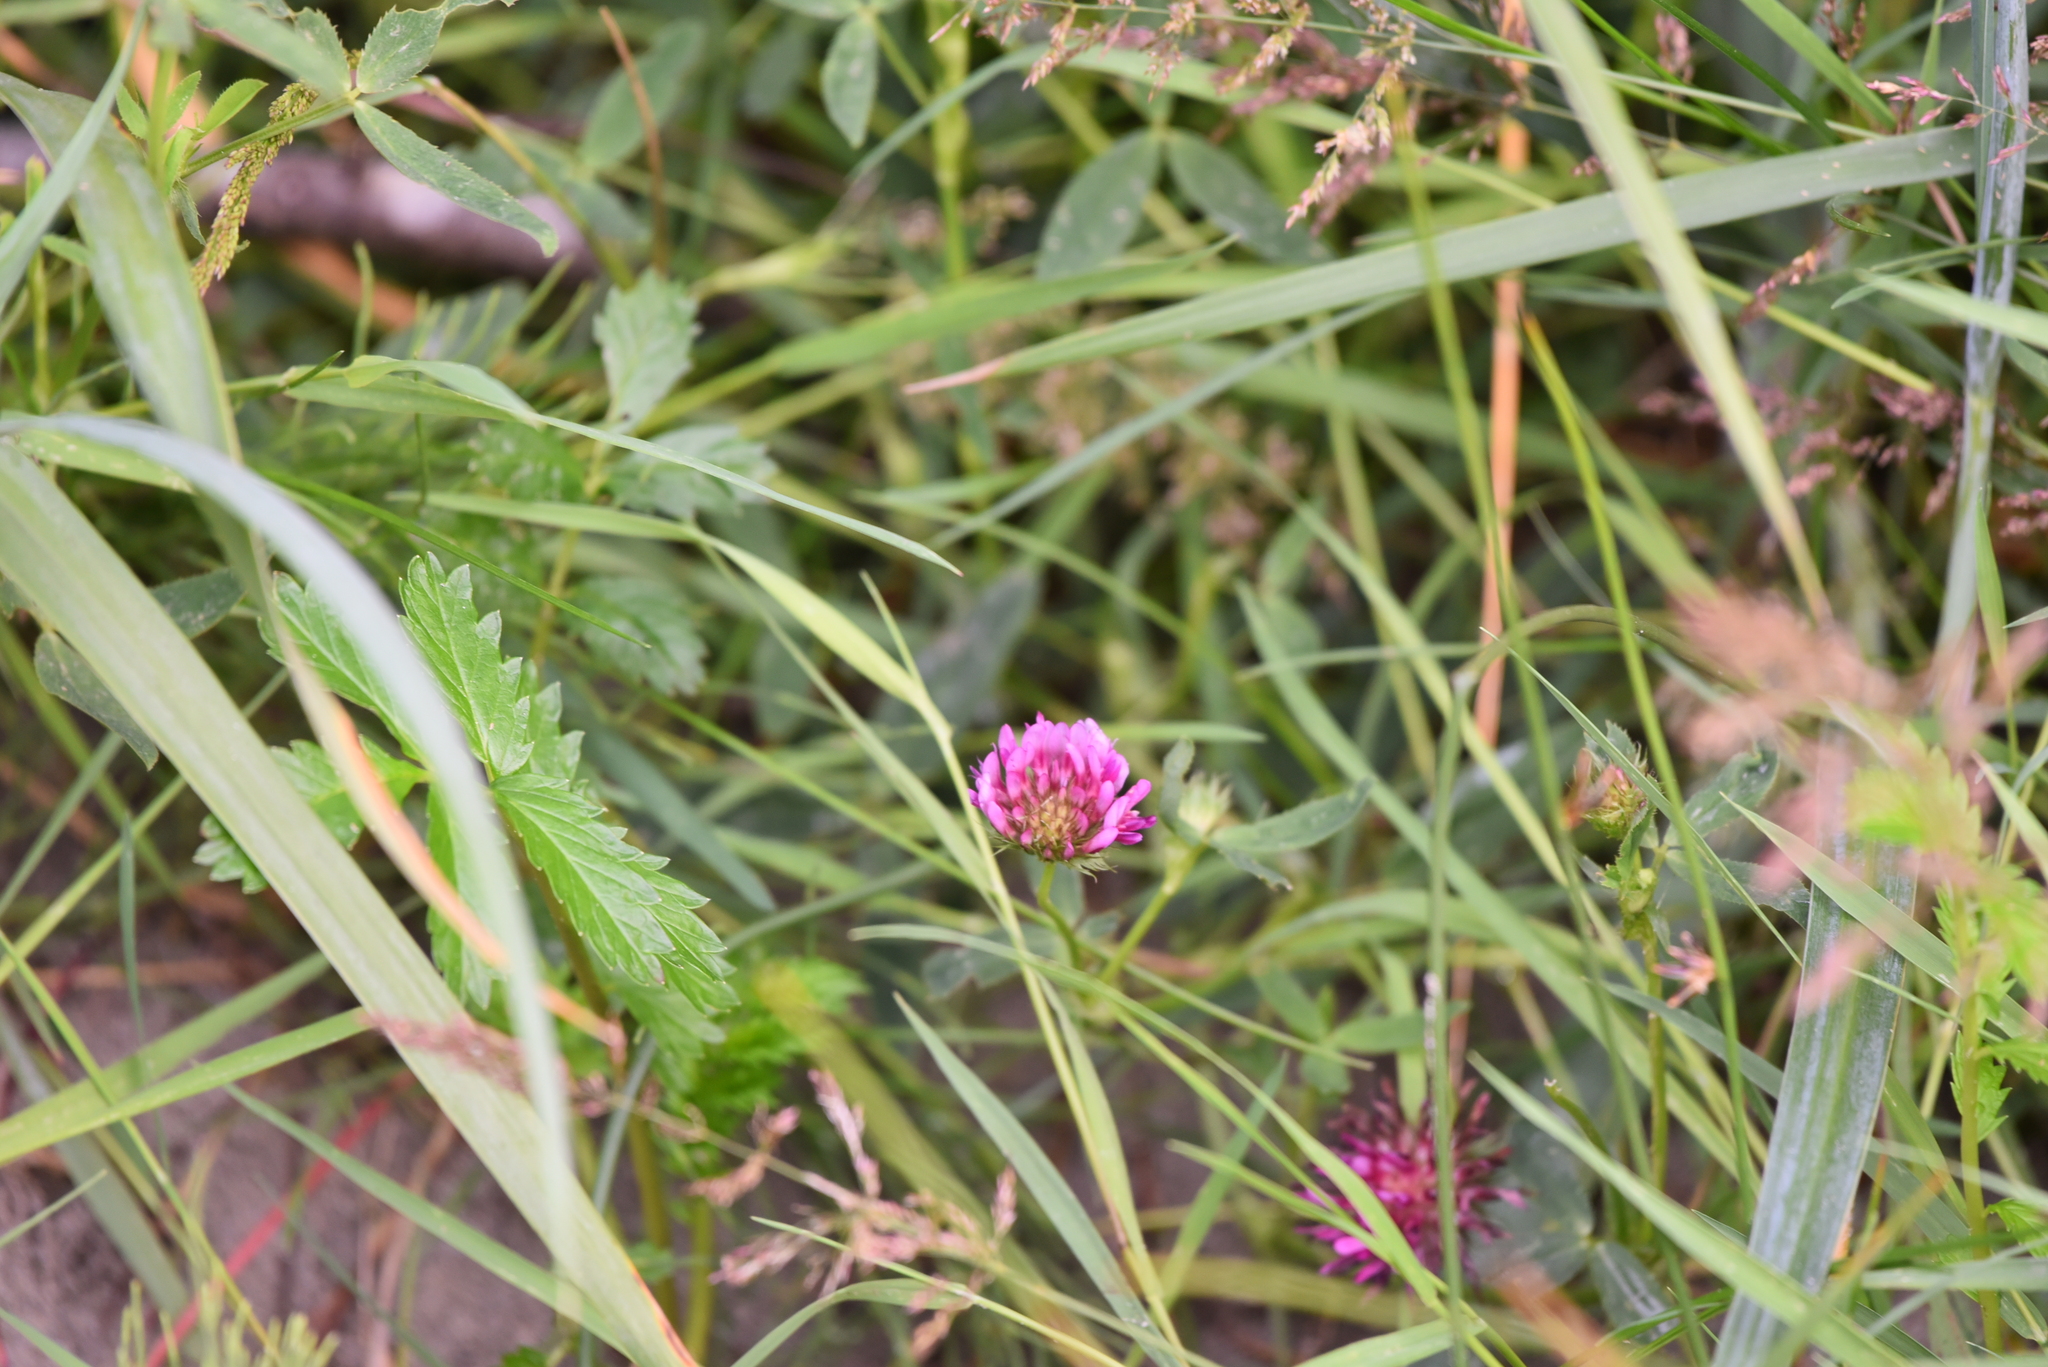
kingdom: Plantae
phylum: Tracheophyta
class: Magnoliopsida
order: Fabales
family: Fabaceae
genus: Trifolium
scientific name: Trifolium wormskioldii
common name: Springbank clover
